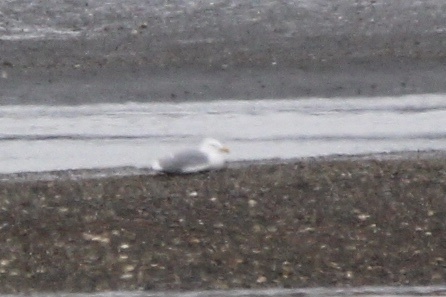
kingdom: Animalia
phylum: Chordata
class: Aves
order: Charadriiformes
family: Laridae
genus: Larus
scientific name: Larus glaucescens
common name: Glaucous-winged gull
